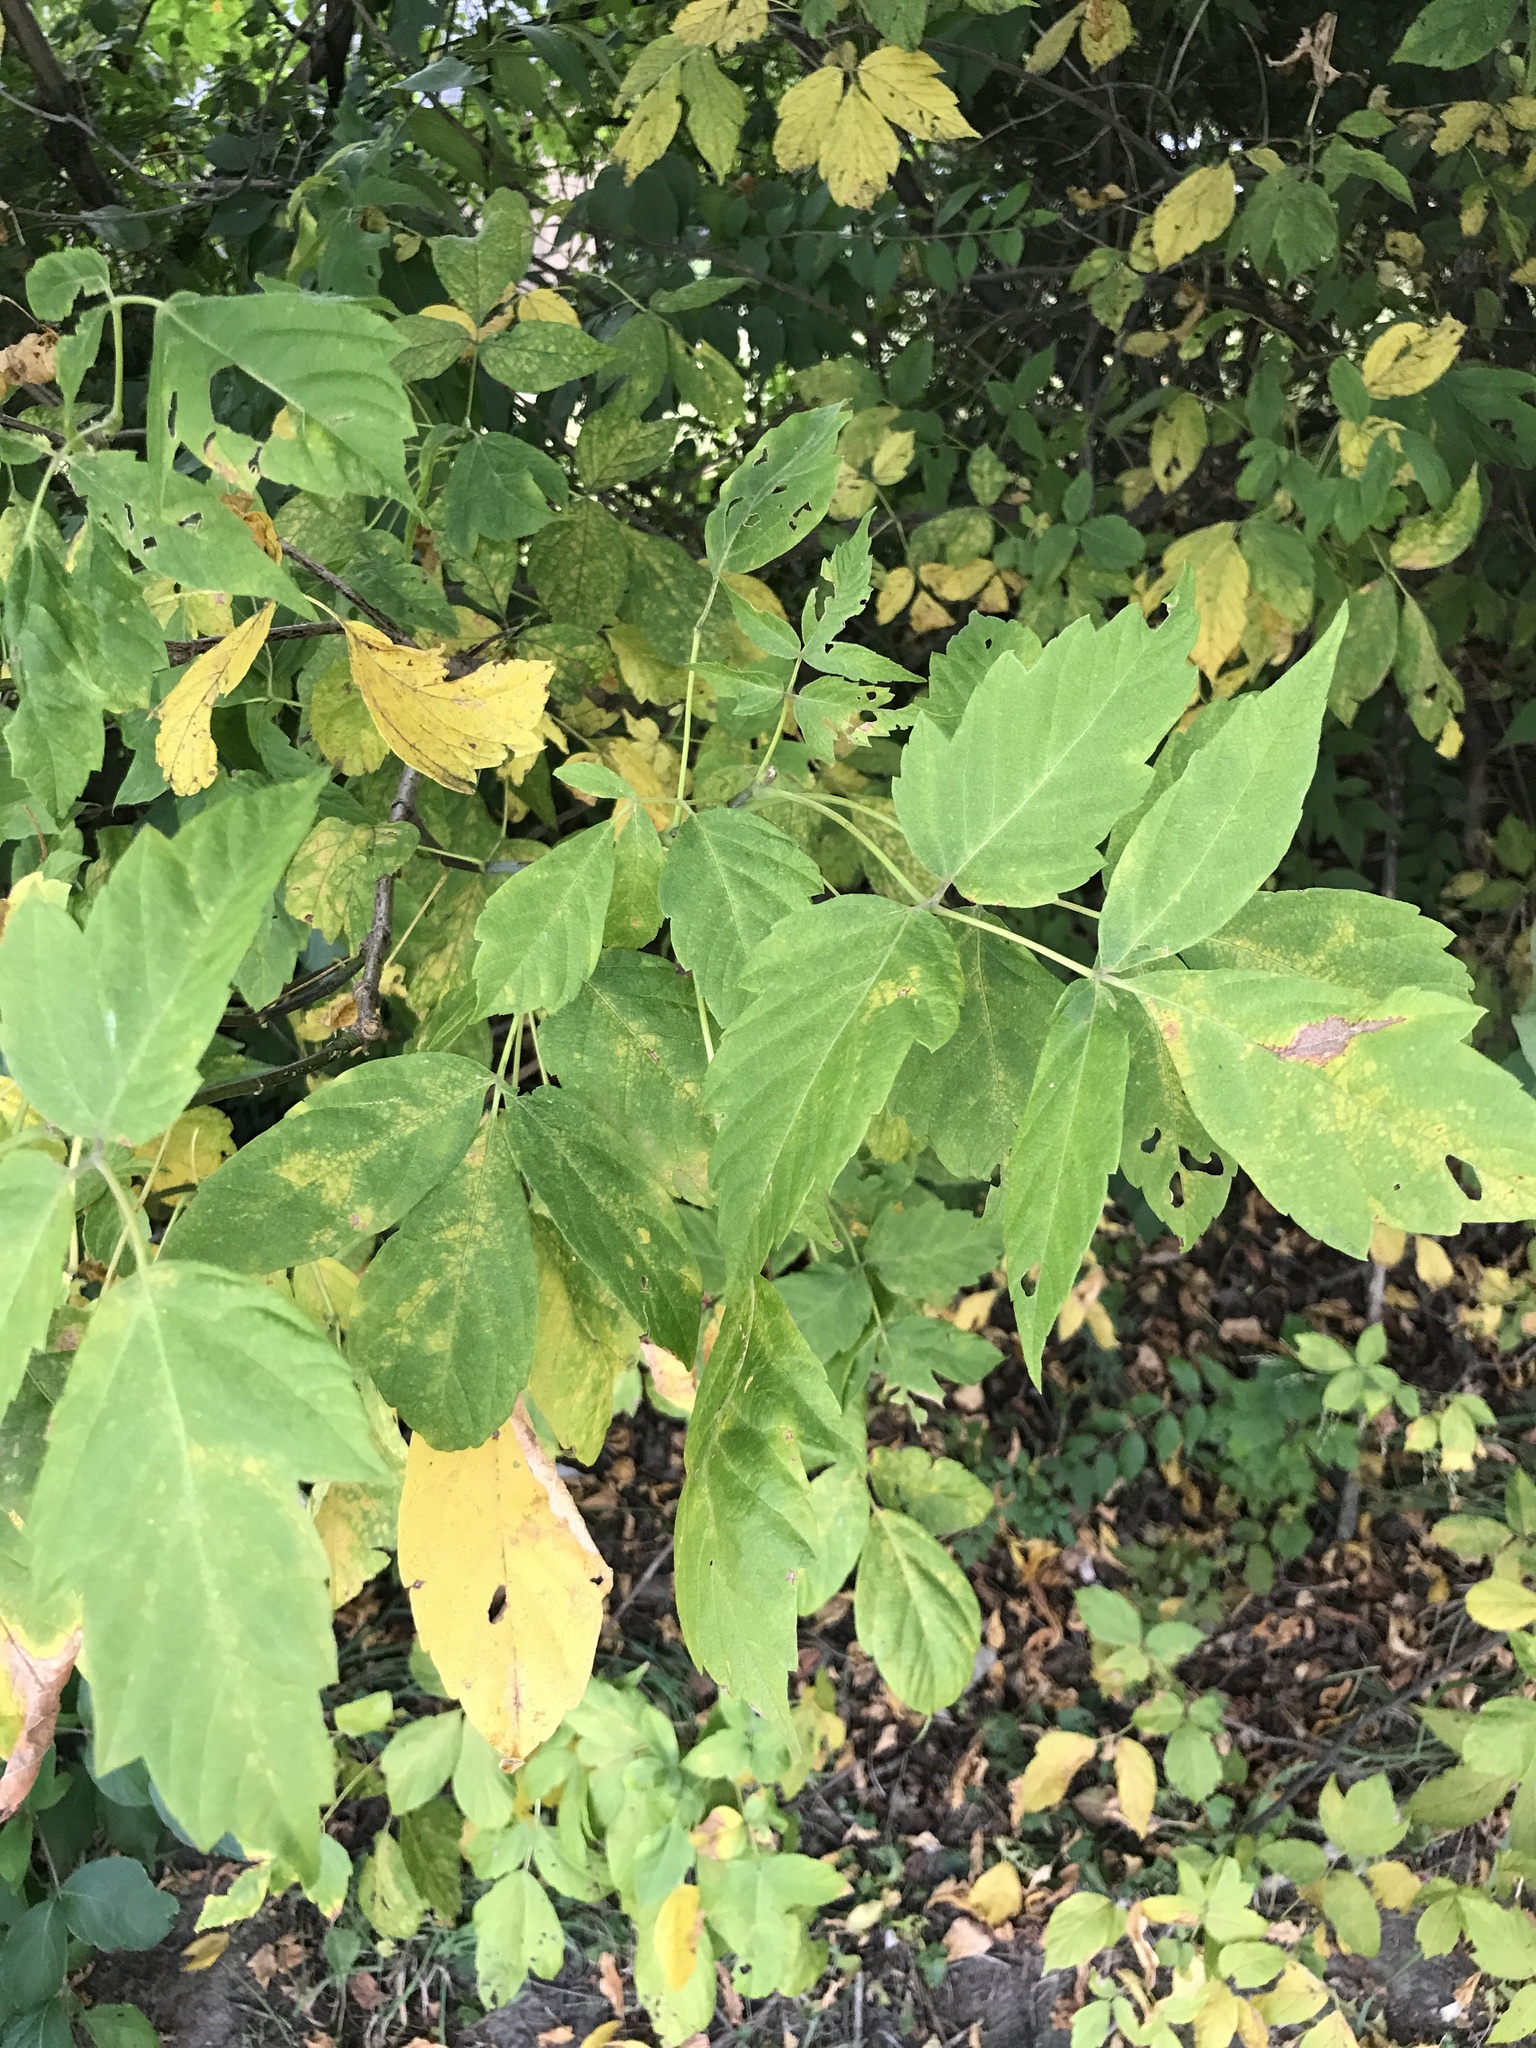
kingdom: Plantae
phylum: Tracheophyta
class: Magnoliopsida
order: Sapindales
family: Sapindaceae
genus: Acer
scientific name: Acer negundo
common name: Ashleaf maple
